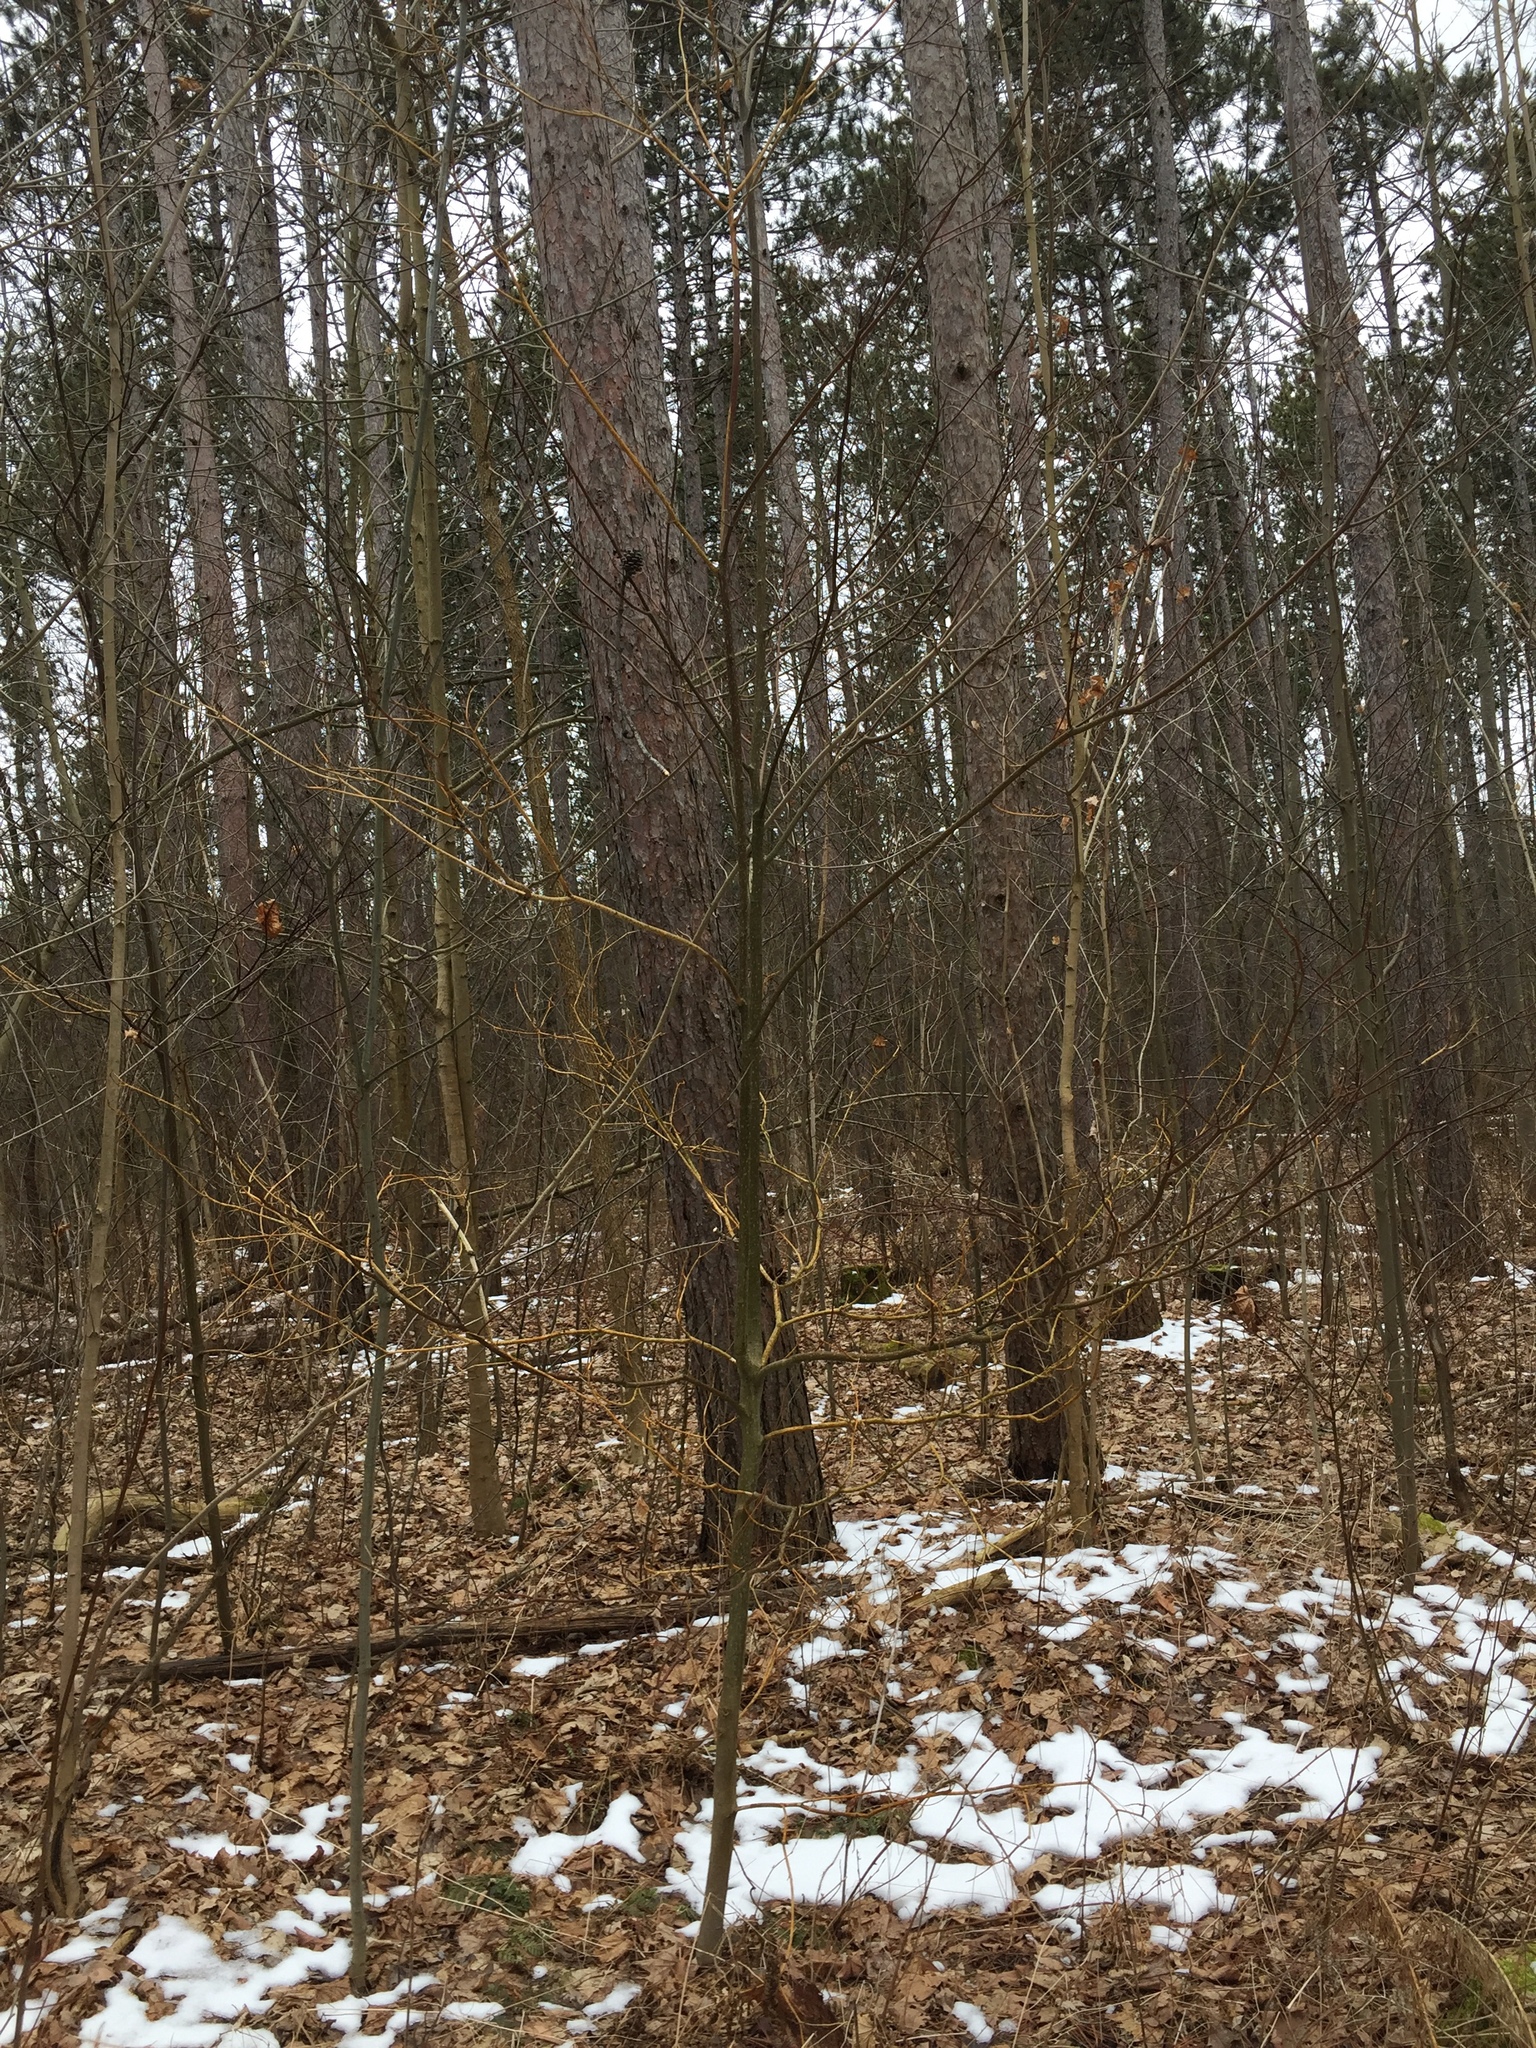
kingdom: Plantae
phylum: Tracheophyta
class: Magnoliopsida
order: Cornales
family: Cornaceae
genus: Cornus
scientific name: Cornus alternifolia
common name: Pagoda dogwood
